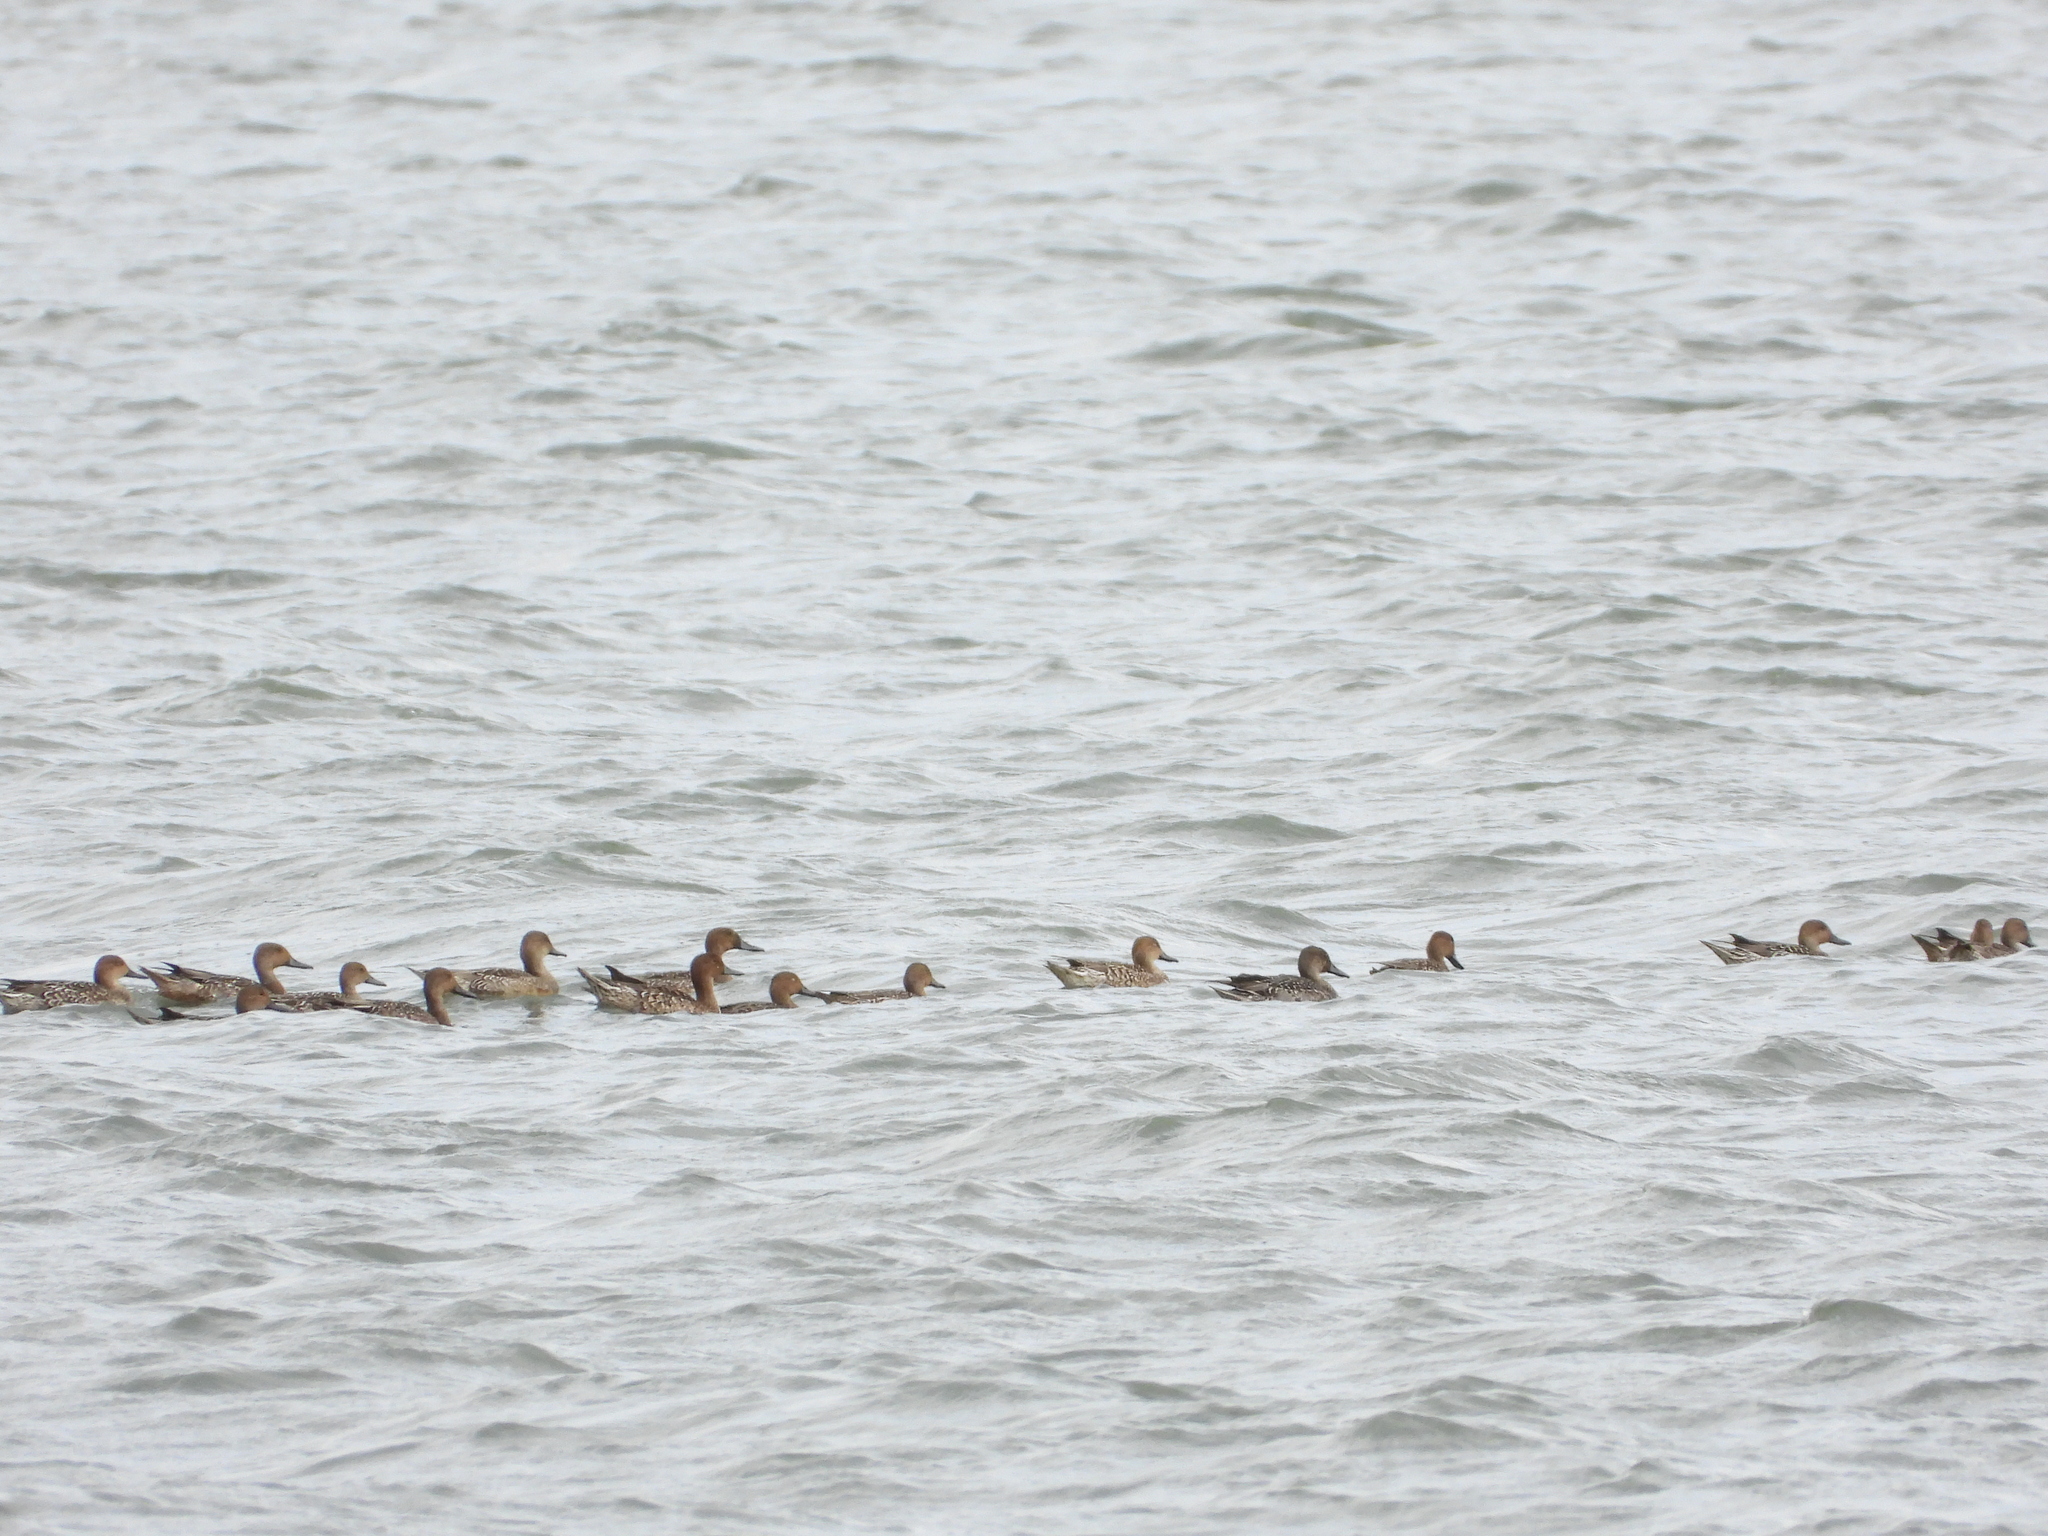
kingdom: Animalia
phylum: Chordata
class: Aves
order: Anseriformes
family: Anatidae
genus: Anas
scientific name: Anas acuta
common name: Northern pintail
